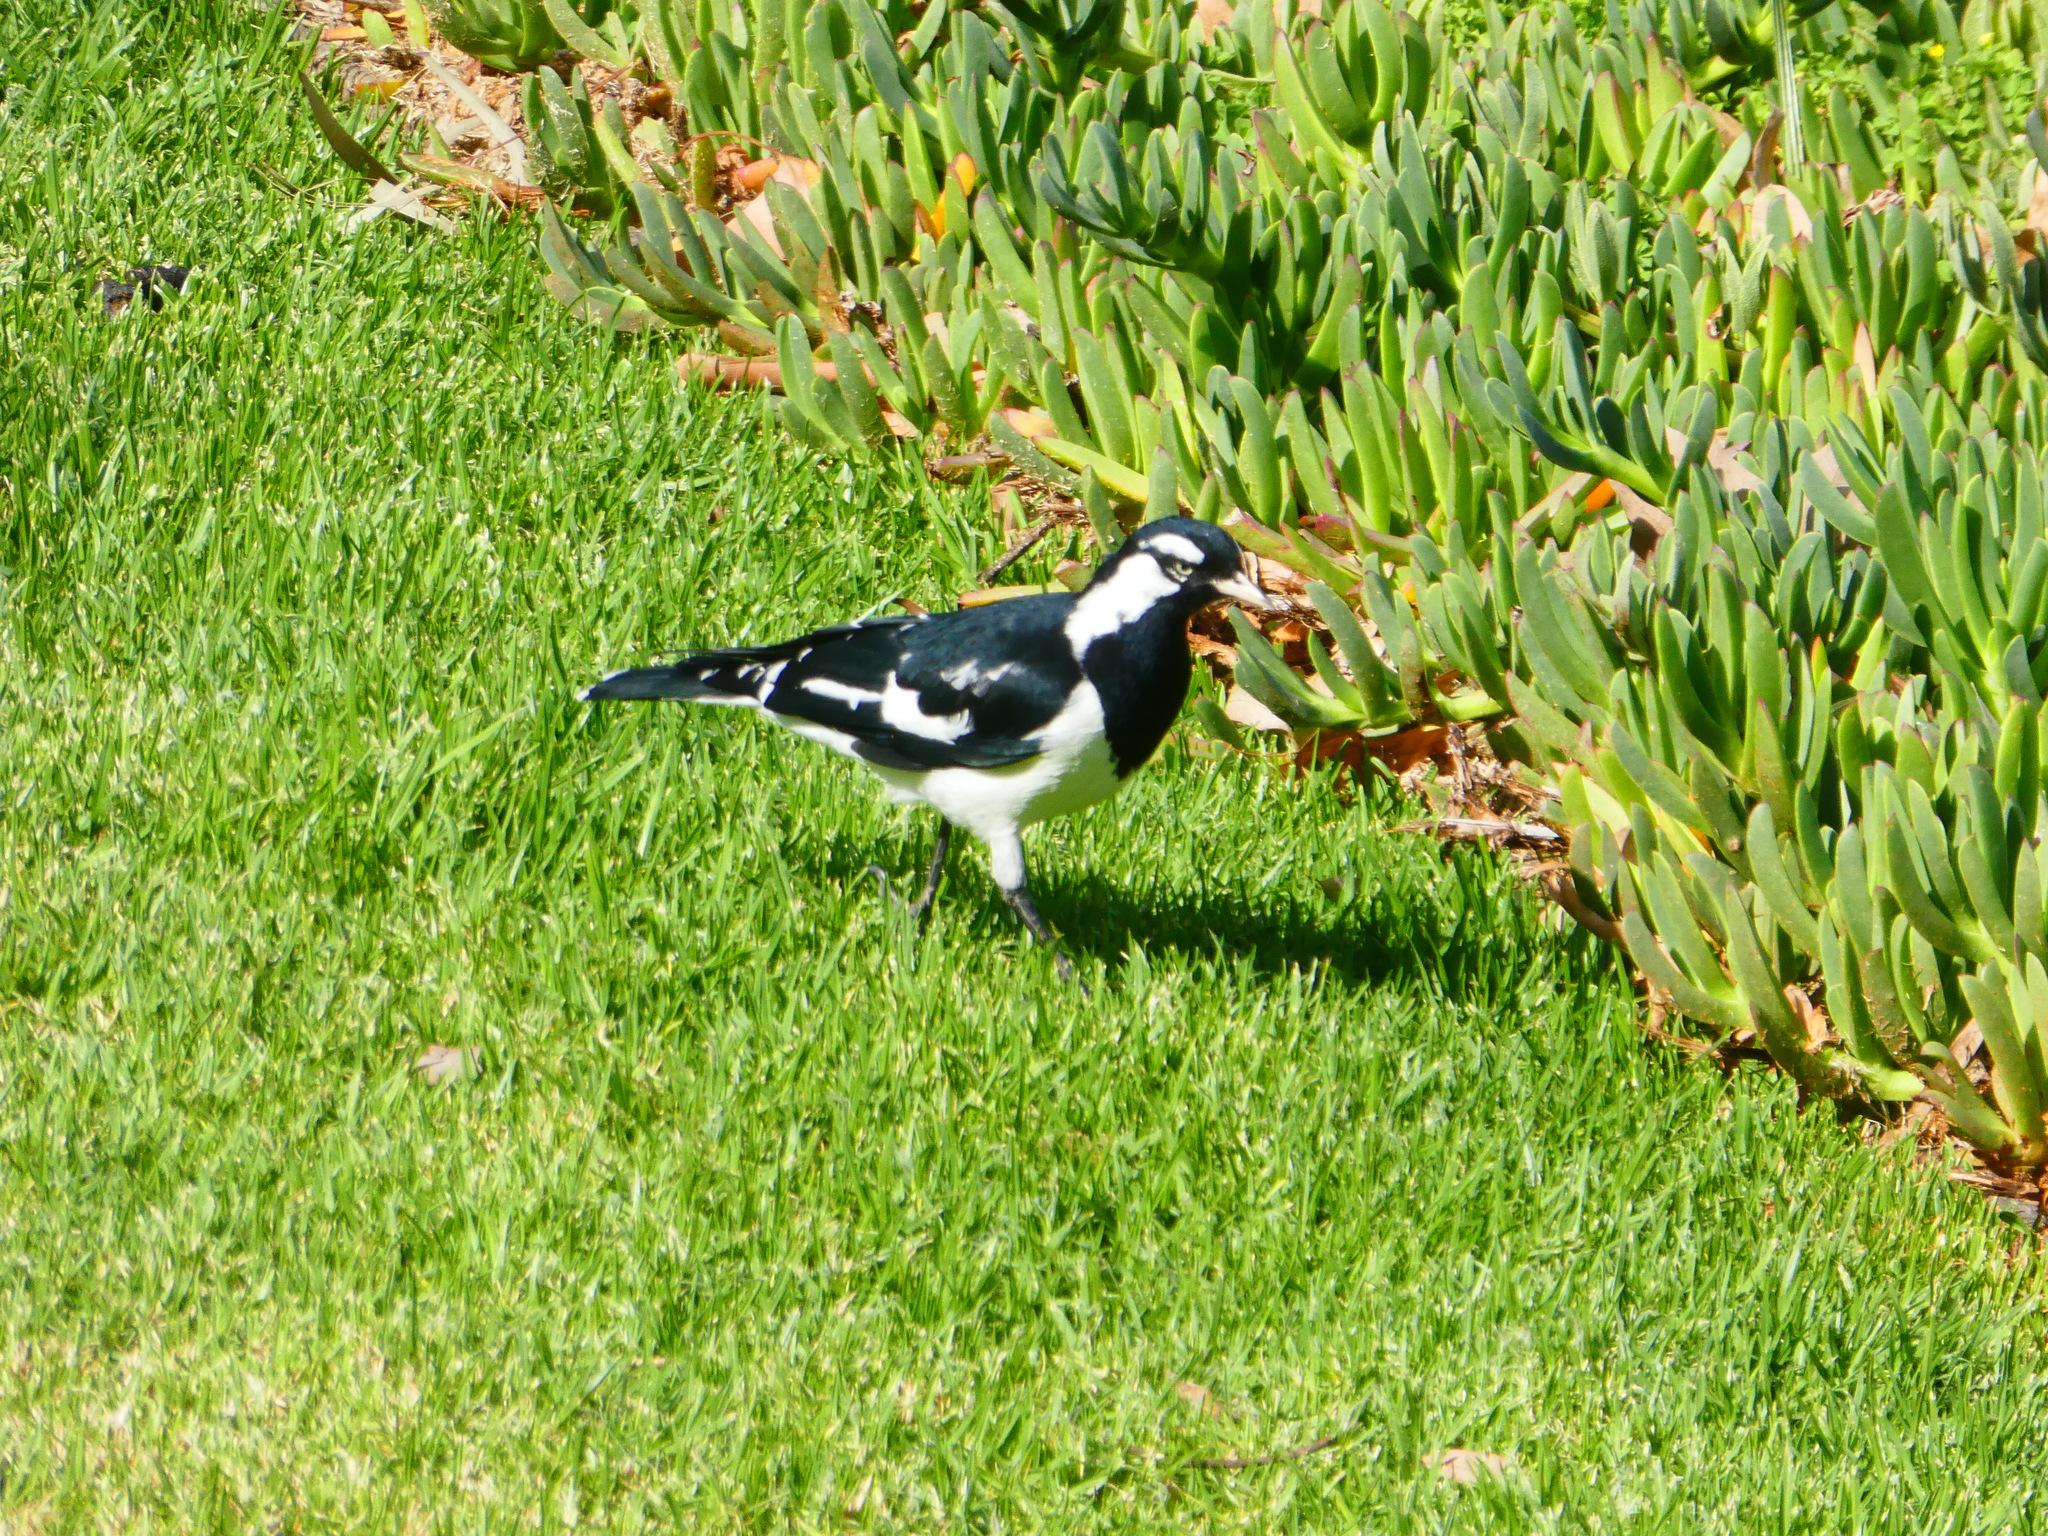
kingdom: Animalia
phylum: Chordata
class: Aves
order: Passeriformes
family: Monarchidae
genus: Grallina
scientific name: Grallina cyanoleuca
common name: Magpie-lark
